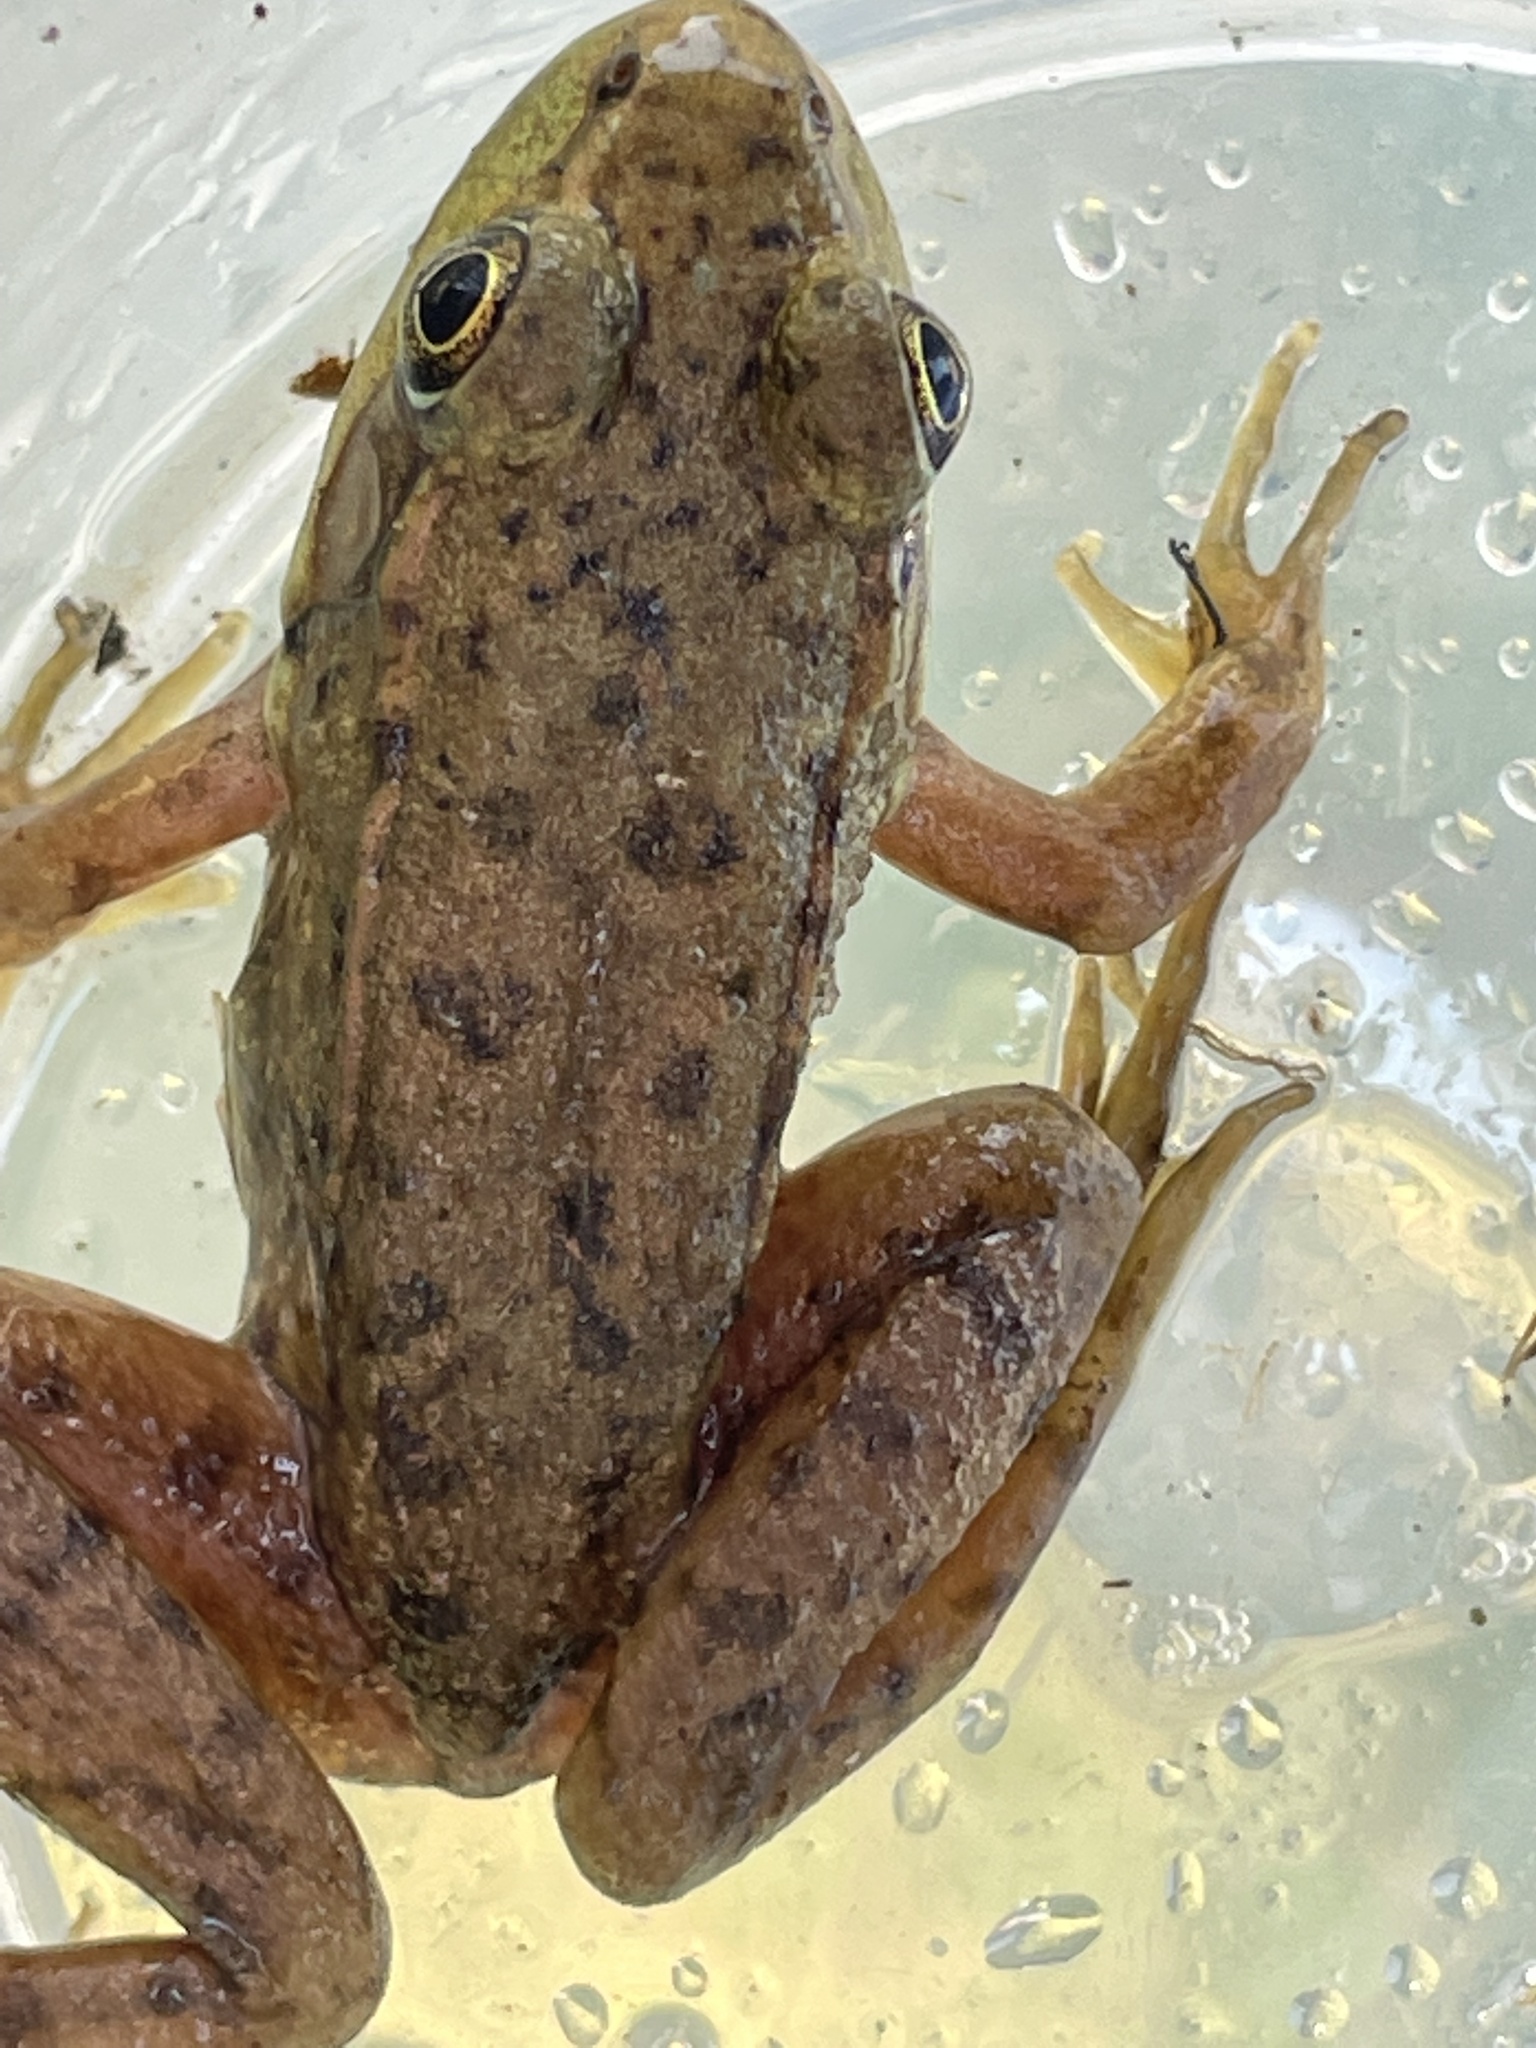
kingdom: Animalia
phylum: Chordata
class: Amphibia
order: Anura
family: Ranidae
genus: Lithobates
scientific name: Lithobates clamitans
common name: Green frog
